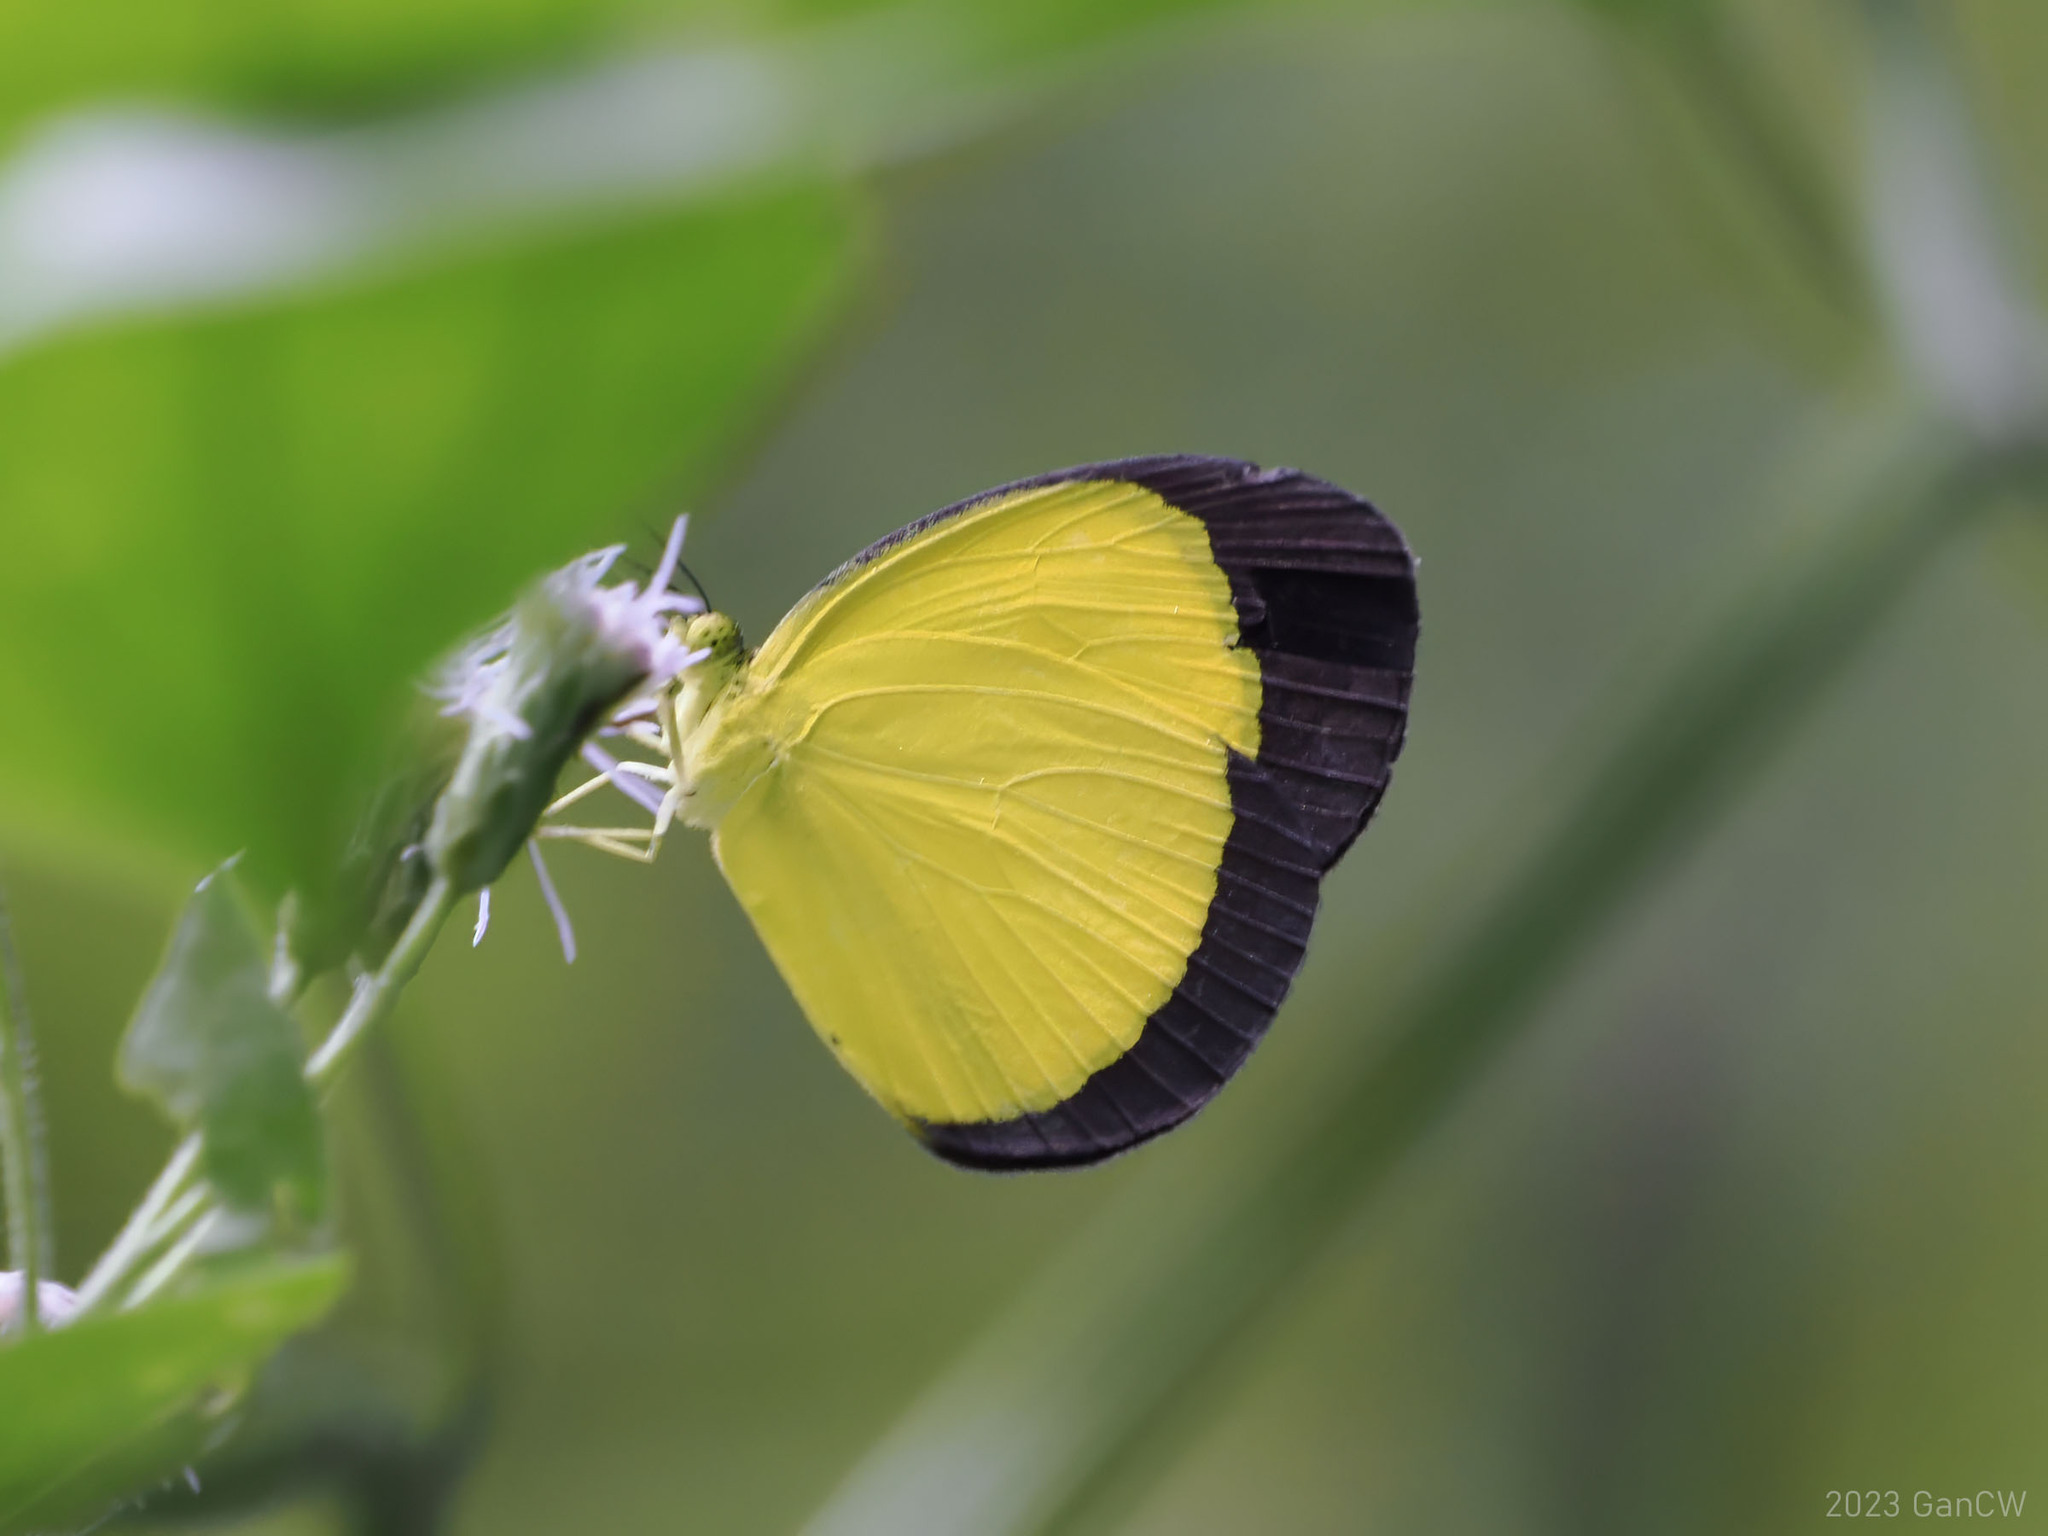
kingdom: Animalia
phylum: Arthropoda
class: Insecta
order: Lepidoptera
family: Pieridae
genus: Eurema
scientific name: Eurema puella
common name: Broad margined grass yellow
